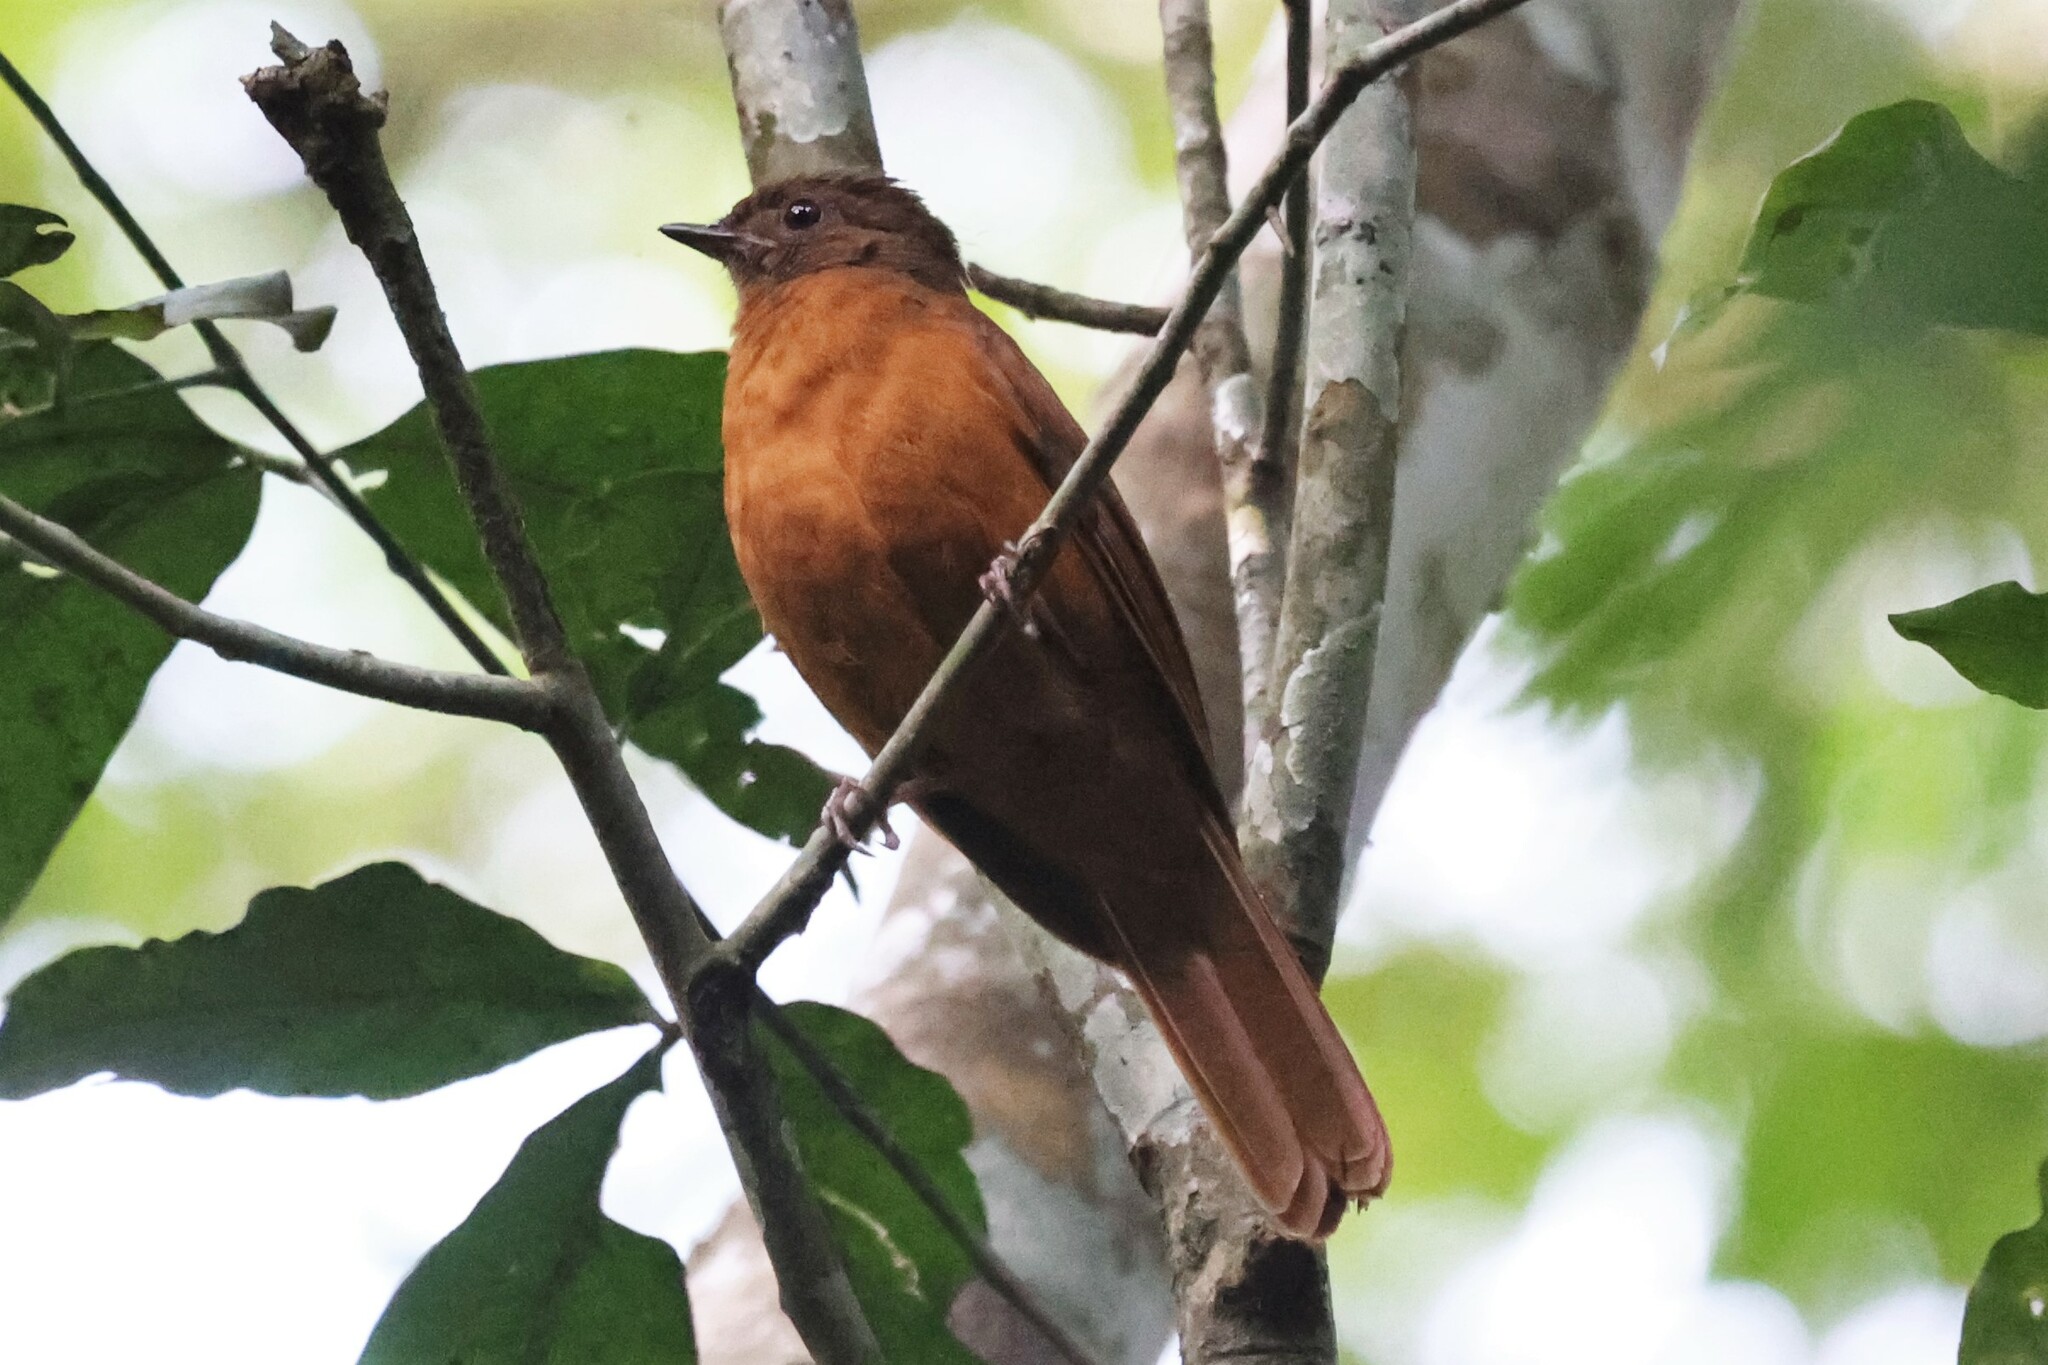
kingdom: Animalia
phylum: Chordata
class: Aves
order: Passeriformes
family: Turdidae
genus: Stizorhina
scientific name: Stizorhina fraseri
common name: Fraser's rufous thrush
